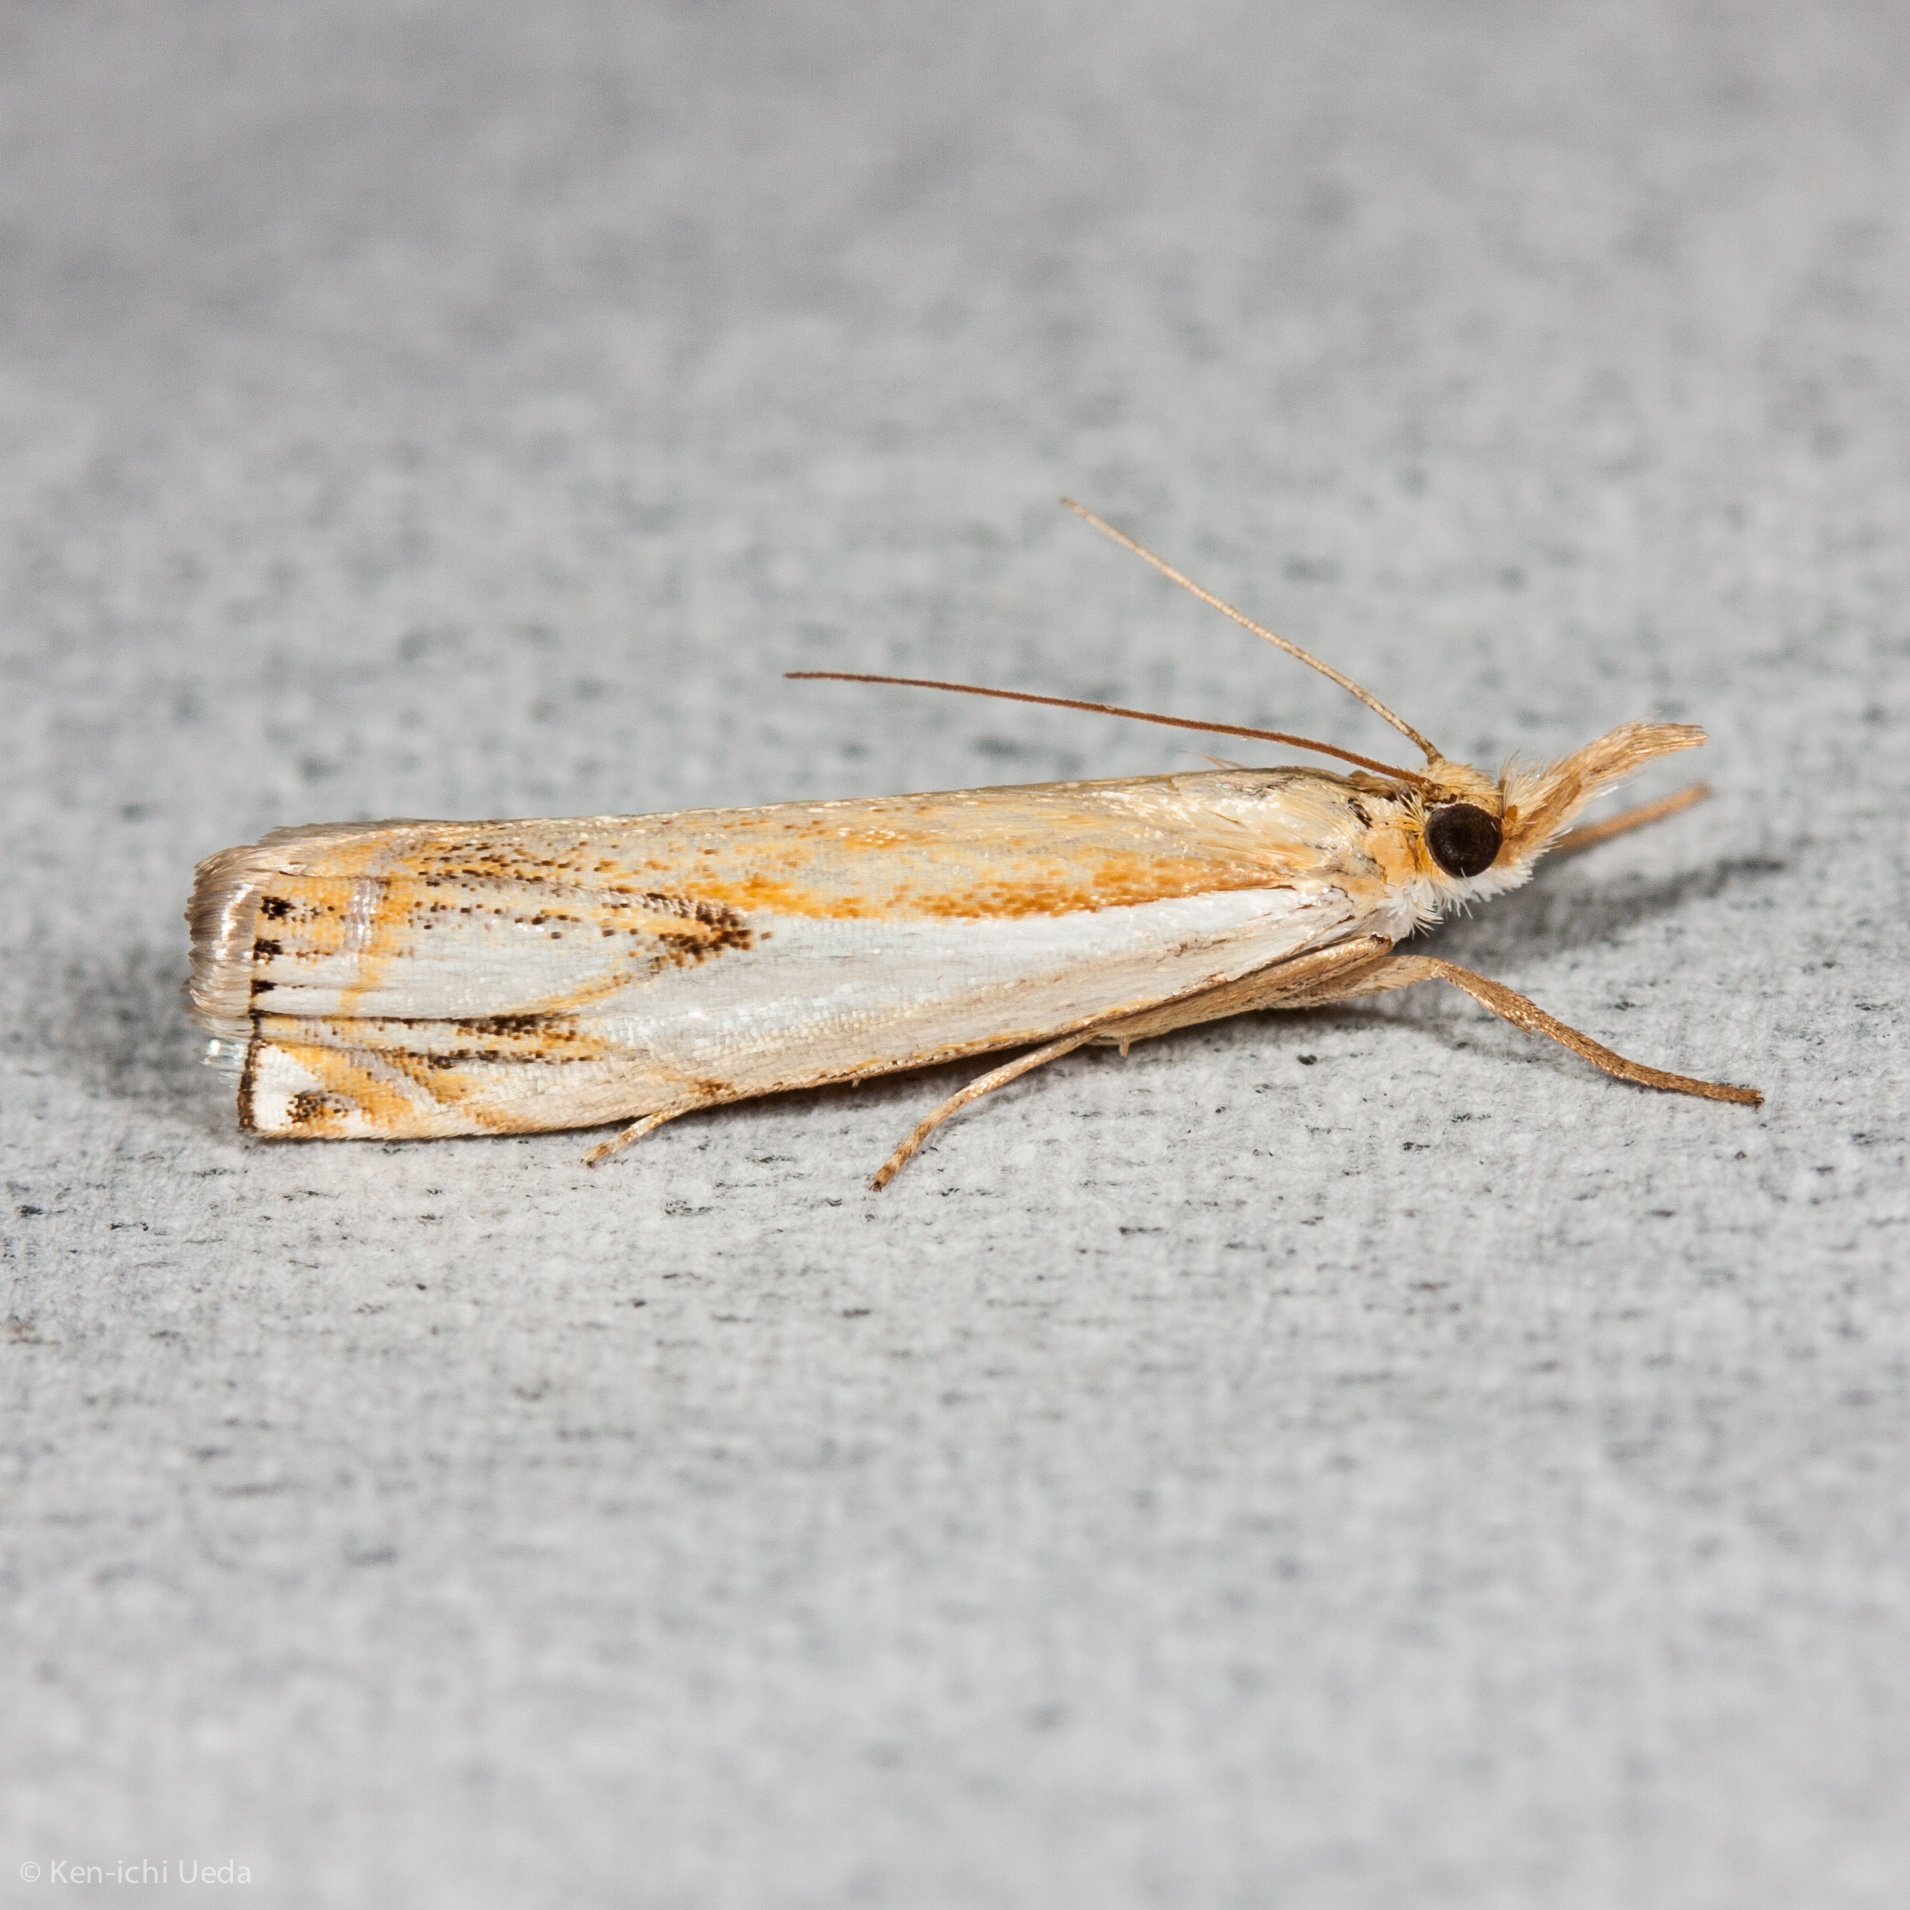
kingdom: Animalia
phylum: Arthropoda
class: Insecta
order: Lepidoptera
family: Crambidae
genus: Crambus
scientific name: Crambus agitatellus
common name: Double-banded grass-veneer
